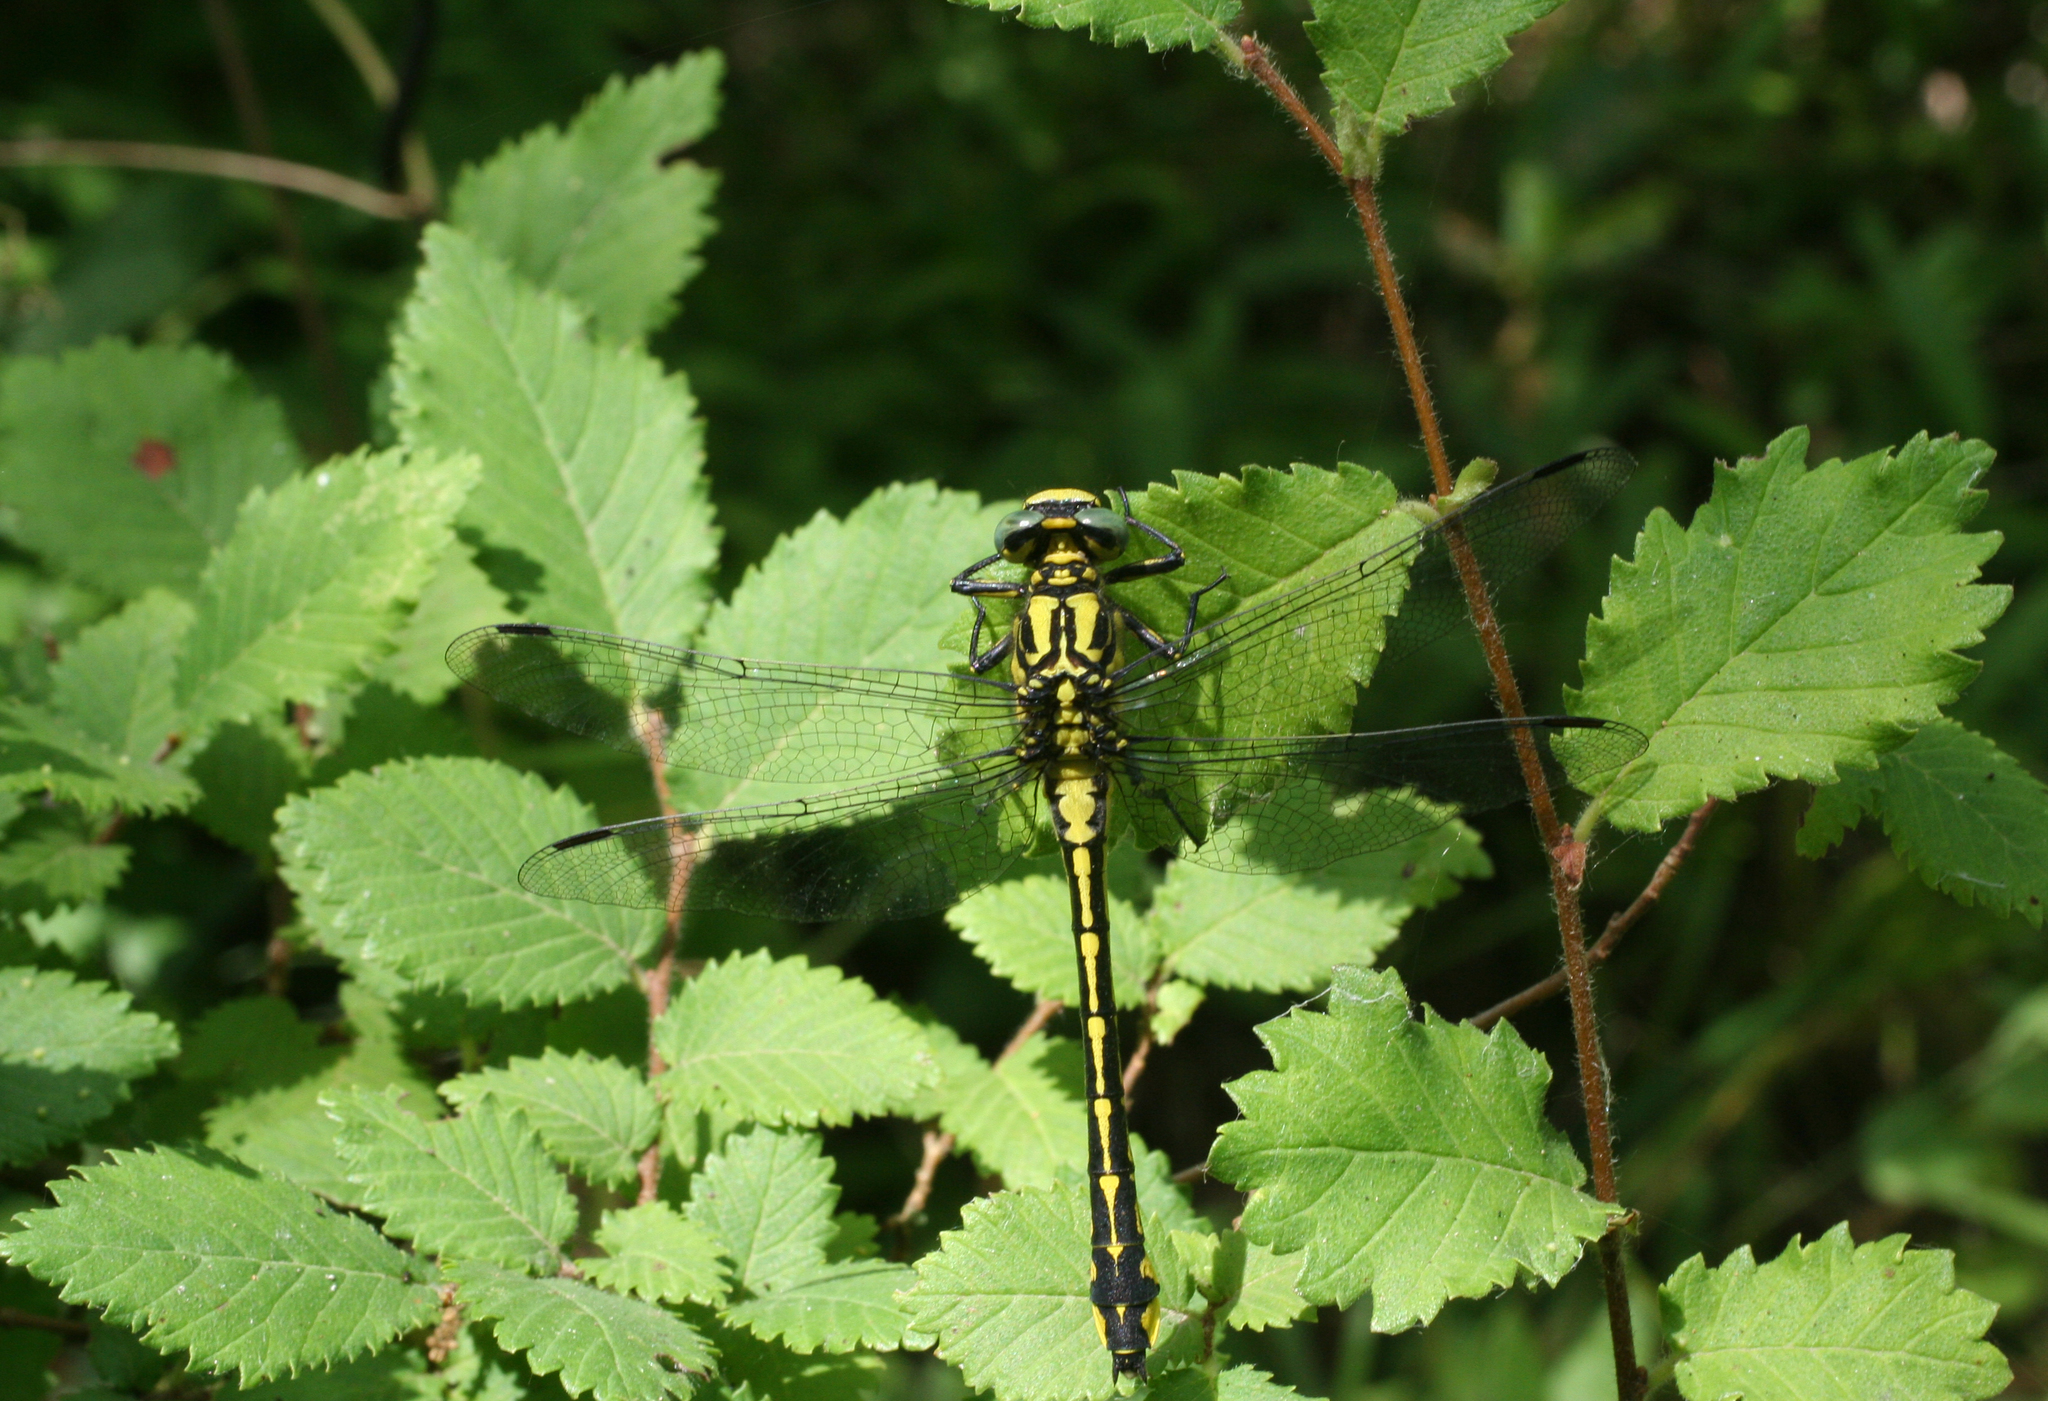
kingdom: Plantae
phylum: Tracheophyta
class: Magnoliopsida
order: Fagales
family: Betulaceae
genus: Carpinus
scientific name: Carpinus betulus
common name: Hornbeam
